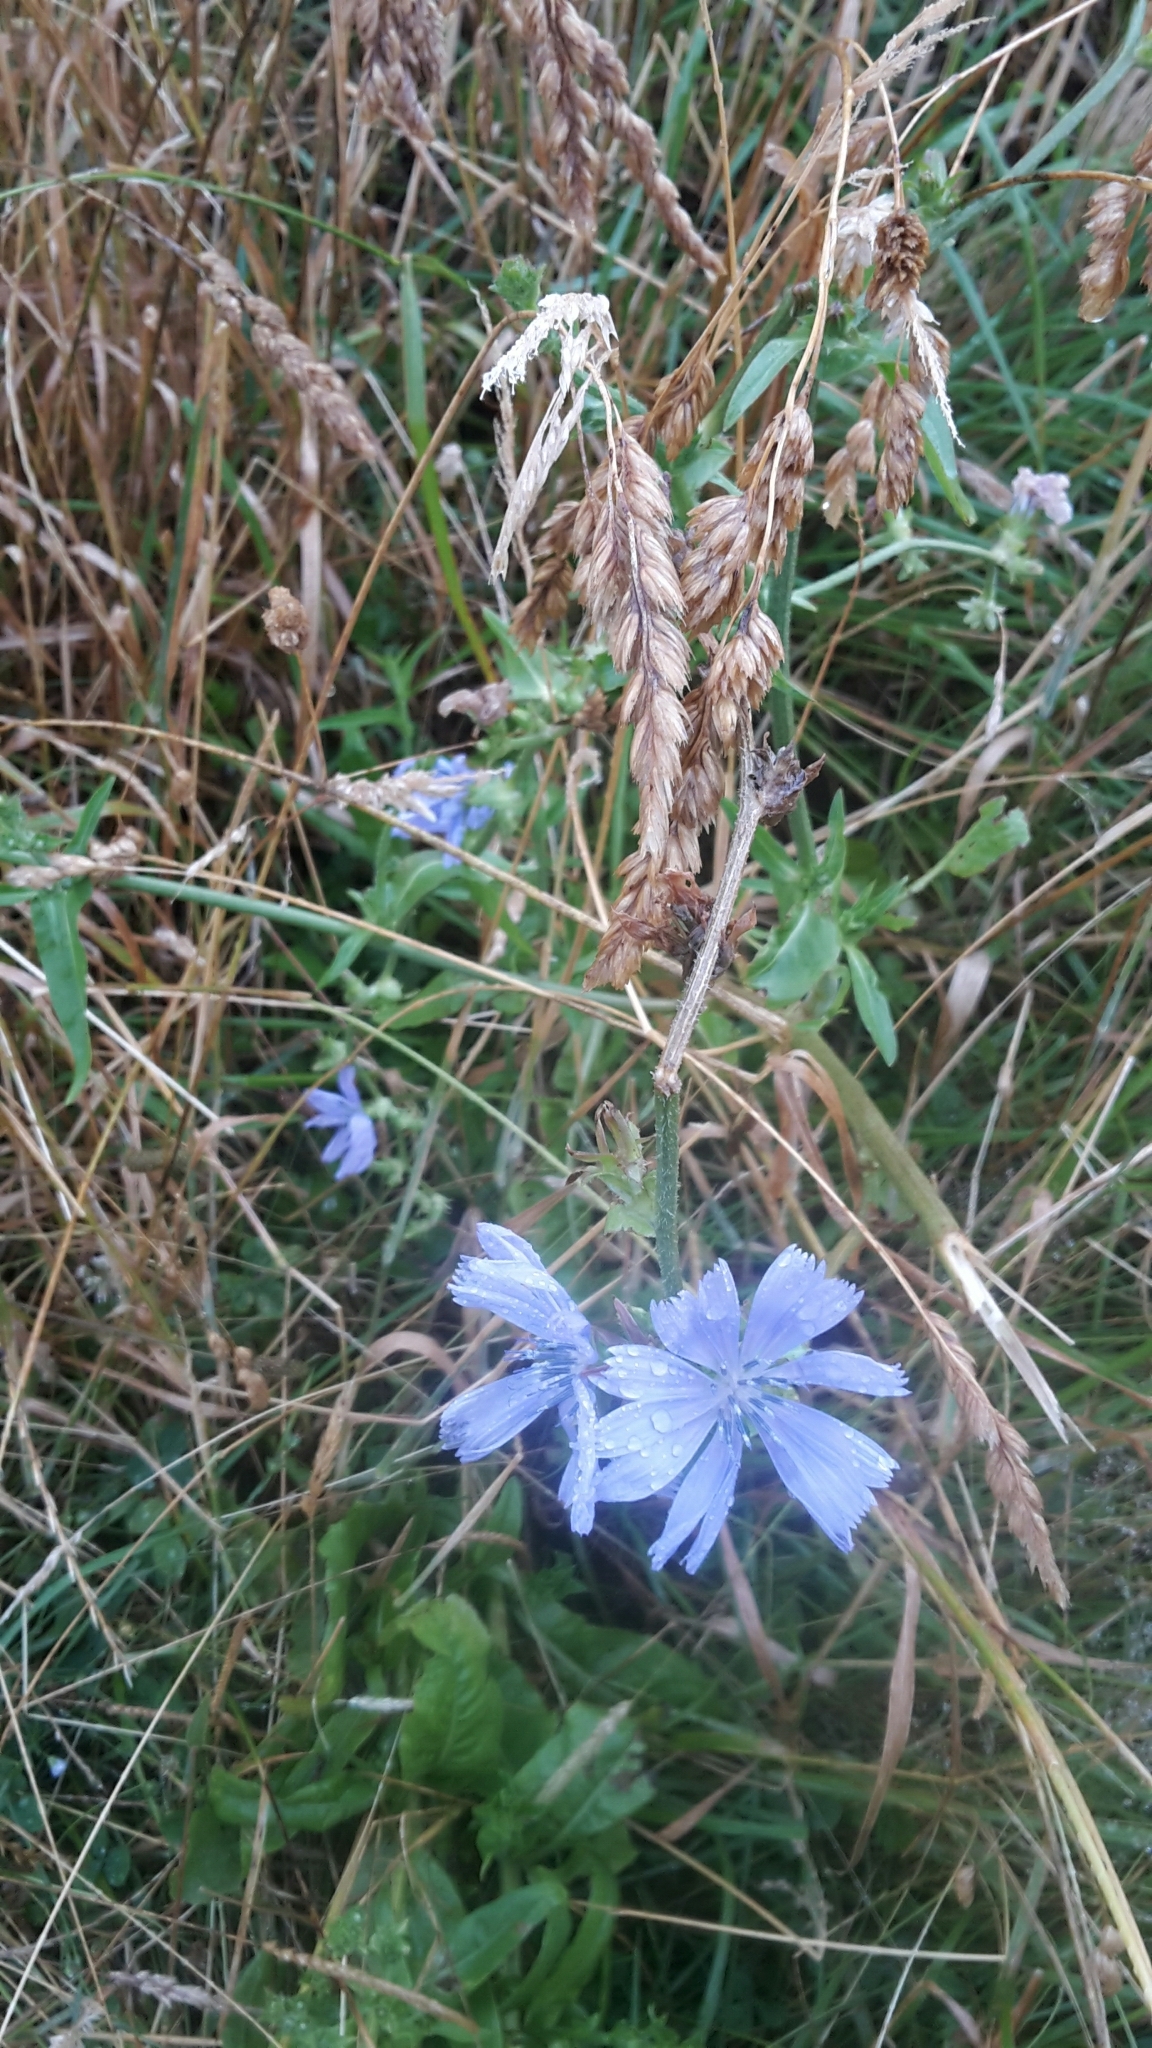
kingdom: Plantae
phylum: Tracheophyta
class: Magnoliopsida
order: Asterales
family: Asteraceae
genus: Cichorium
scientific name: Cichorium intybus
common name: Chicory
